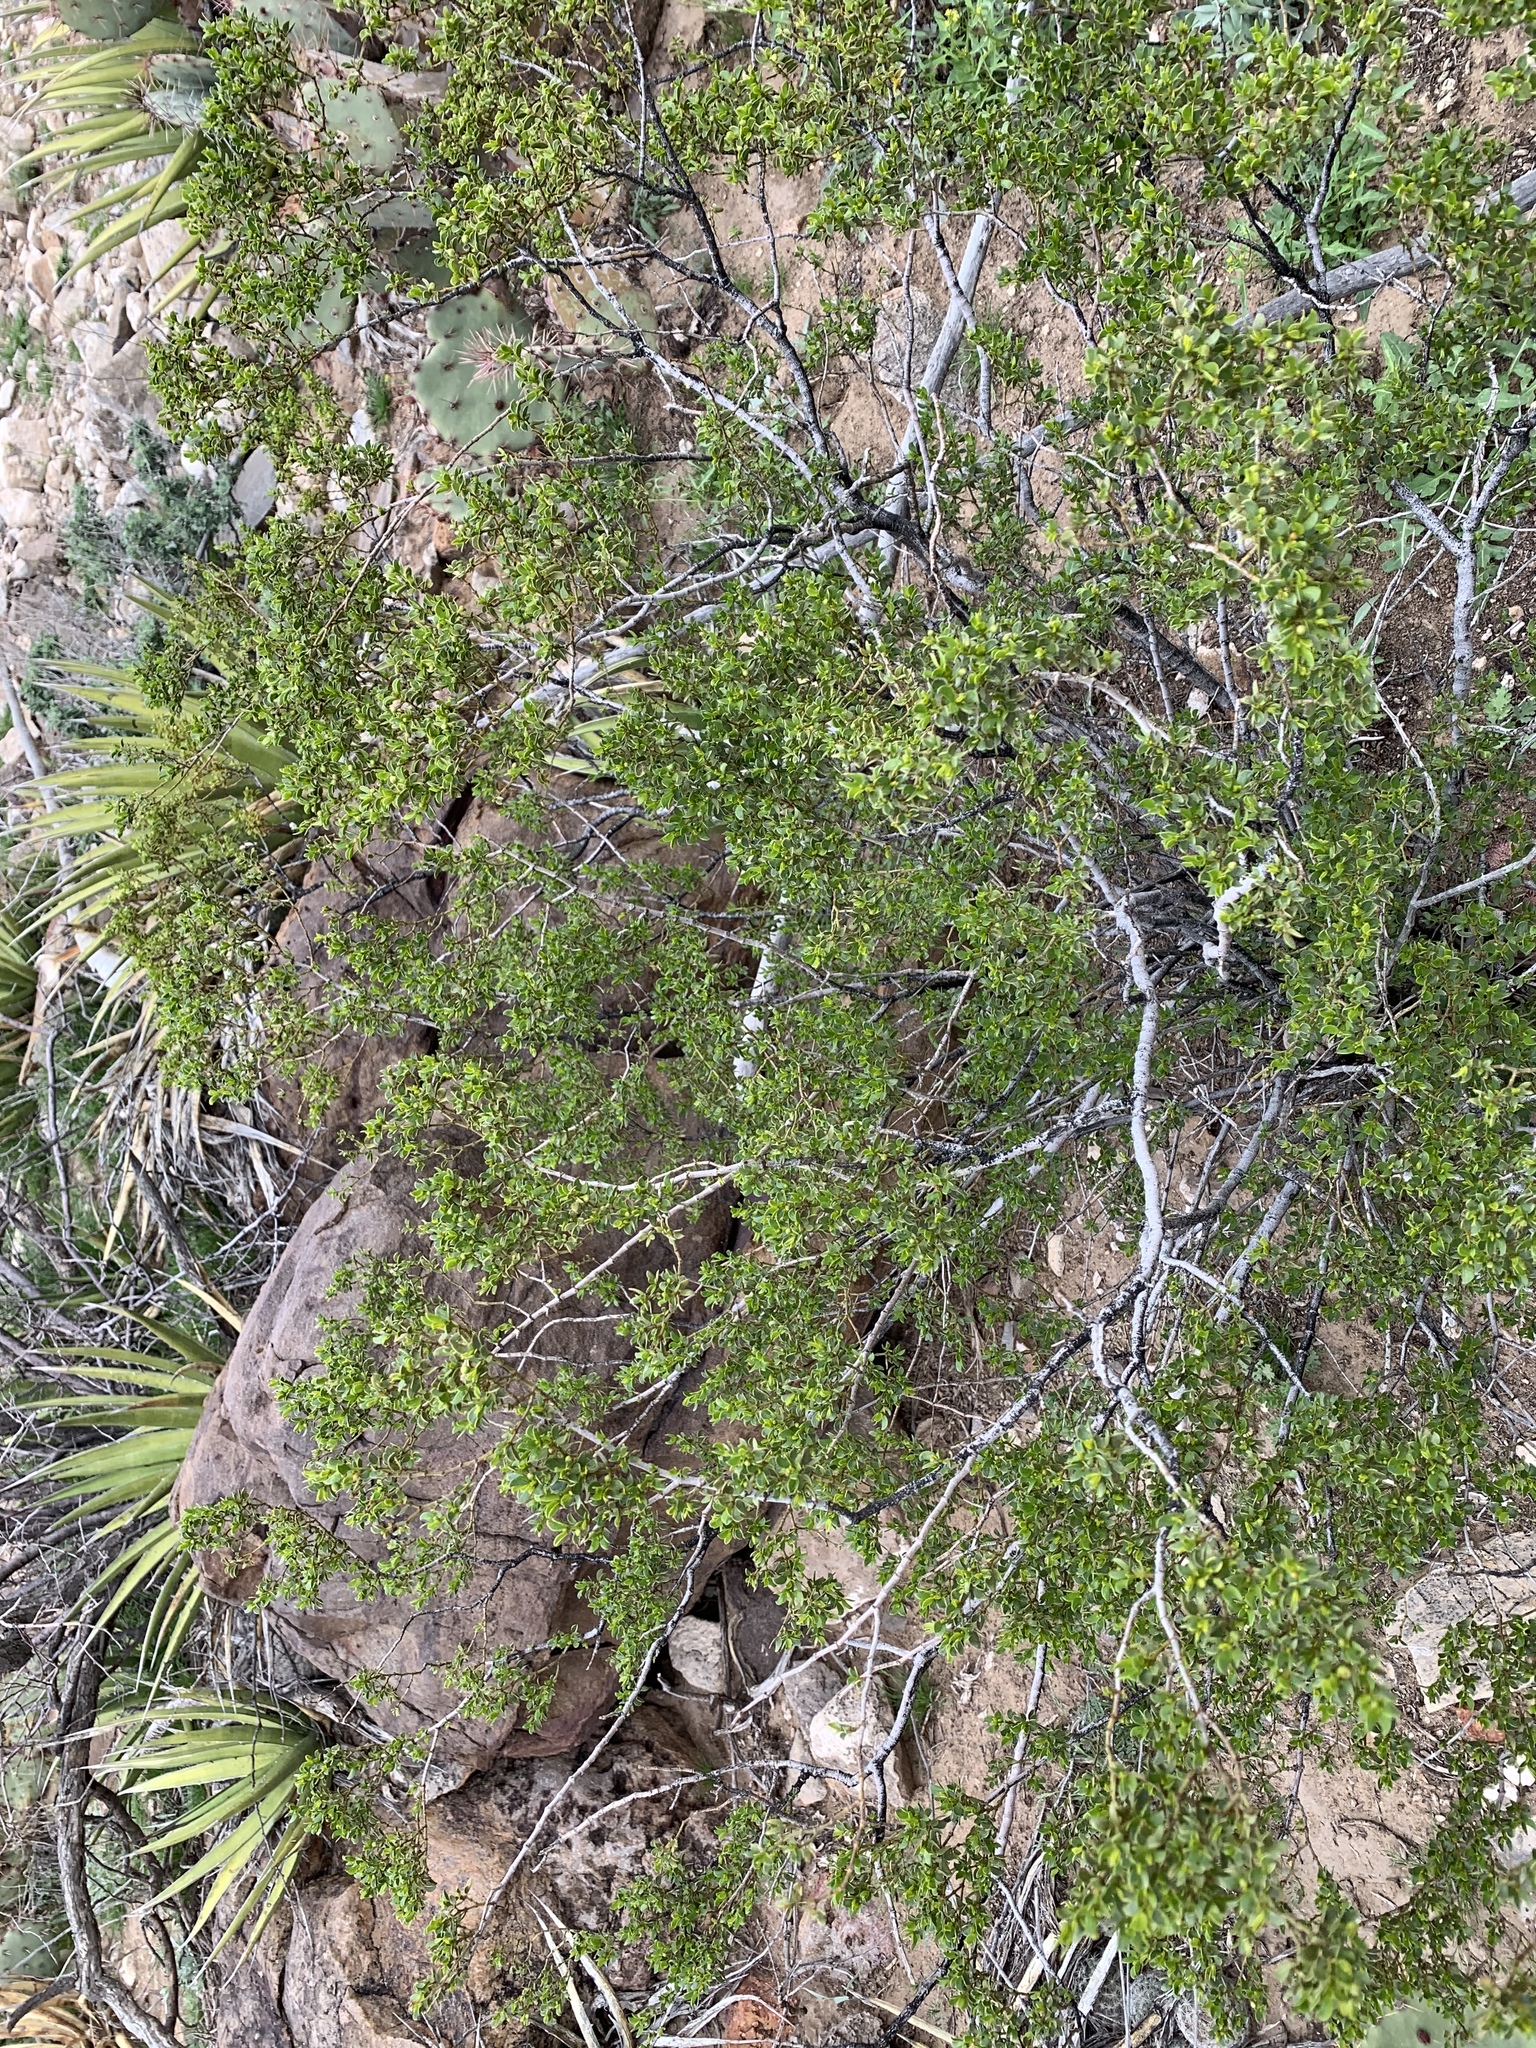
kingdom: Plantae
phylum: Tracheophyta
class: Magnoliopsida
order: Zygophyllales
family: Zygophyllaceae
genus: Larrea
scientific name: Larrea tridentata
